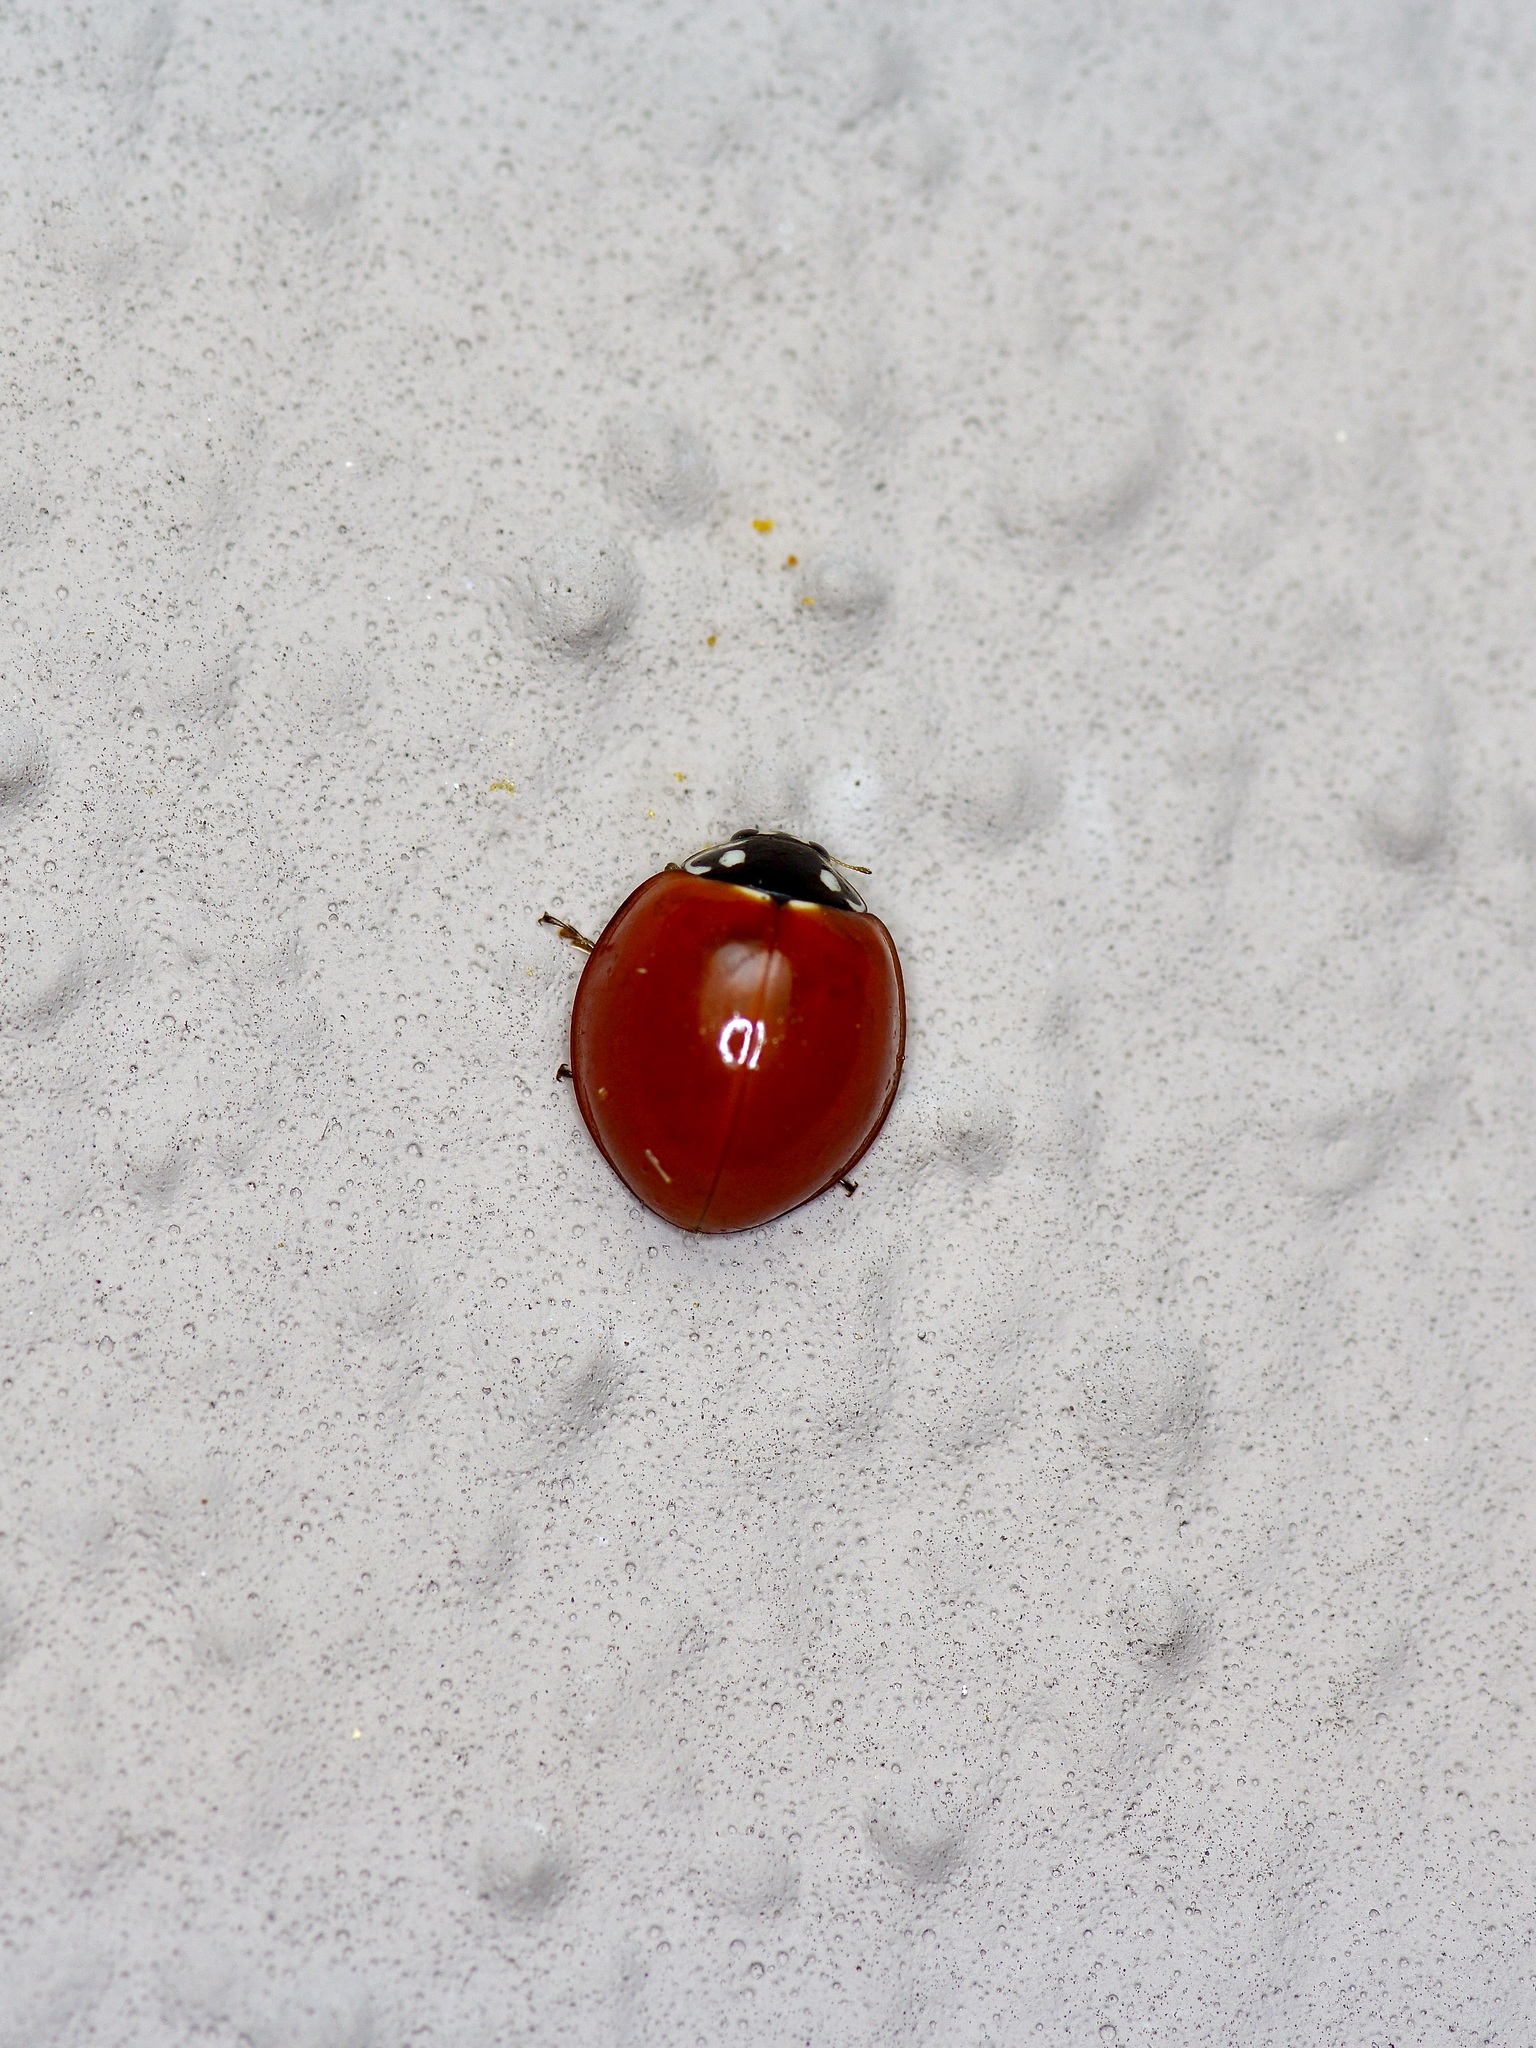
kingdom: Animalia
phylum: Arthropoda
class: Insecta
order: Coleoptera
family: Coccinellidae
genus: Cycloneda
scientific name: Cycloneda sanguinea
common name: Ladybird beetle
